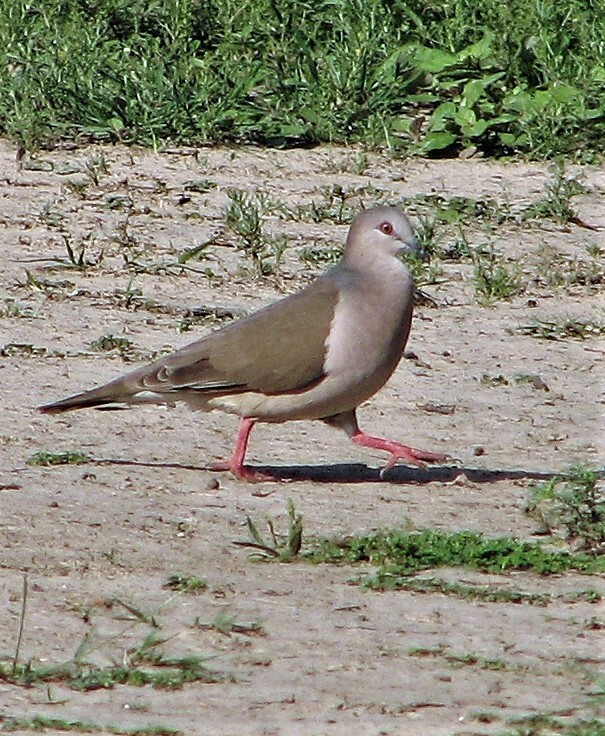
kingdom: Animalia
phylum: Chordata
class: Aves
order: Columbiformes
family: Columbidae
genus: Leptotila
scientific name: Leptotila verreauxi
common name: White-tipped dove
